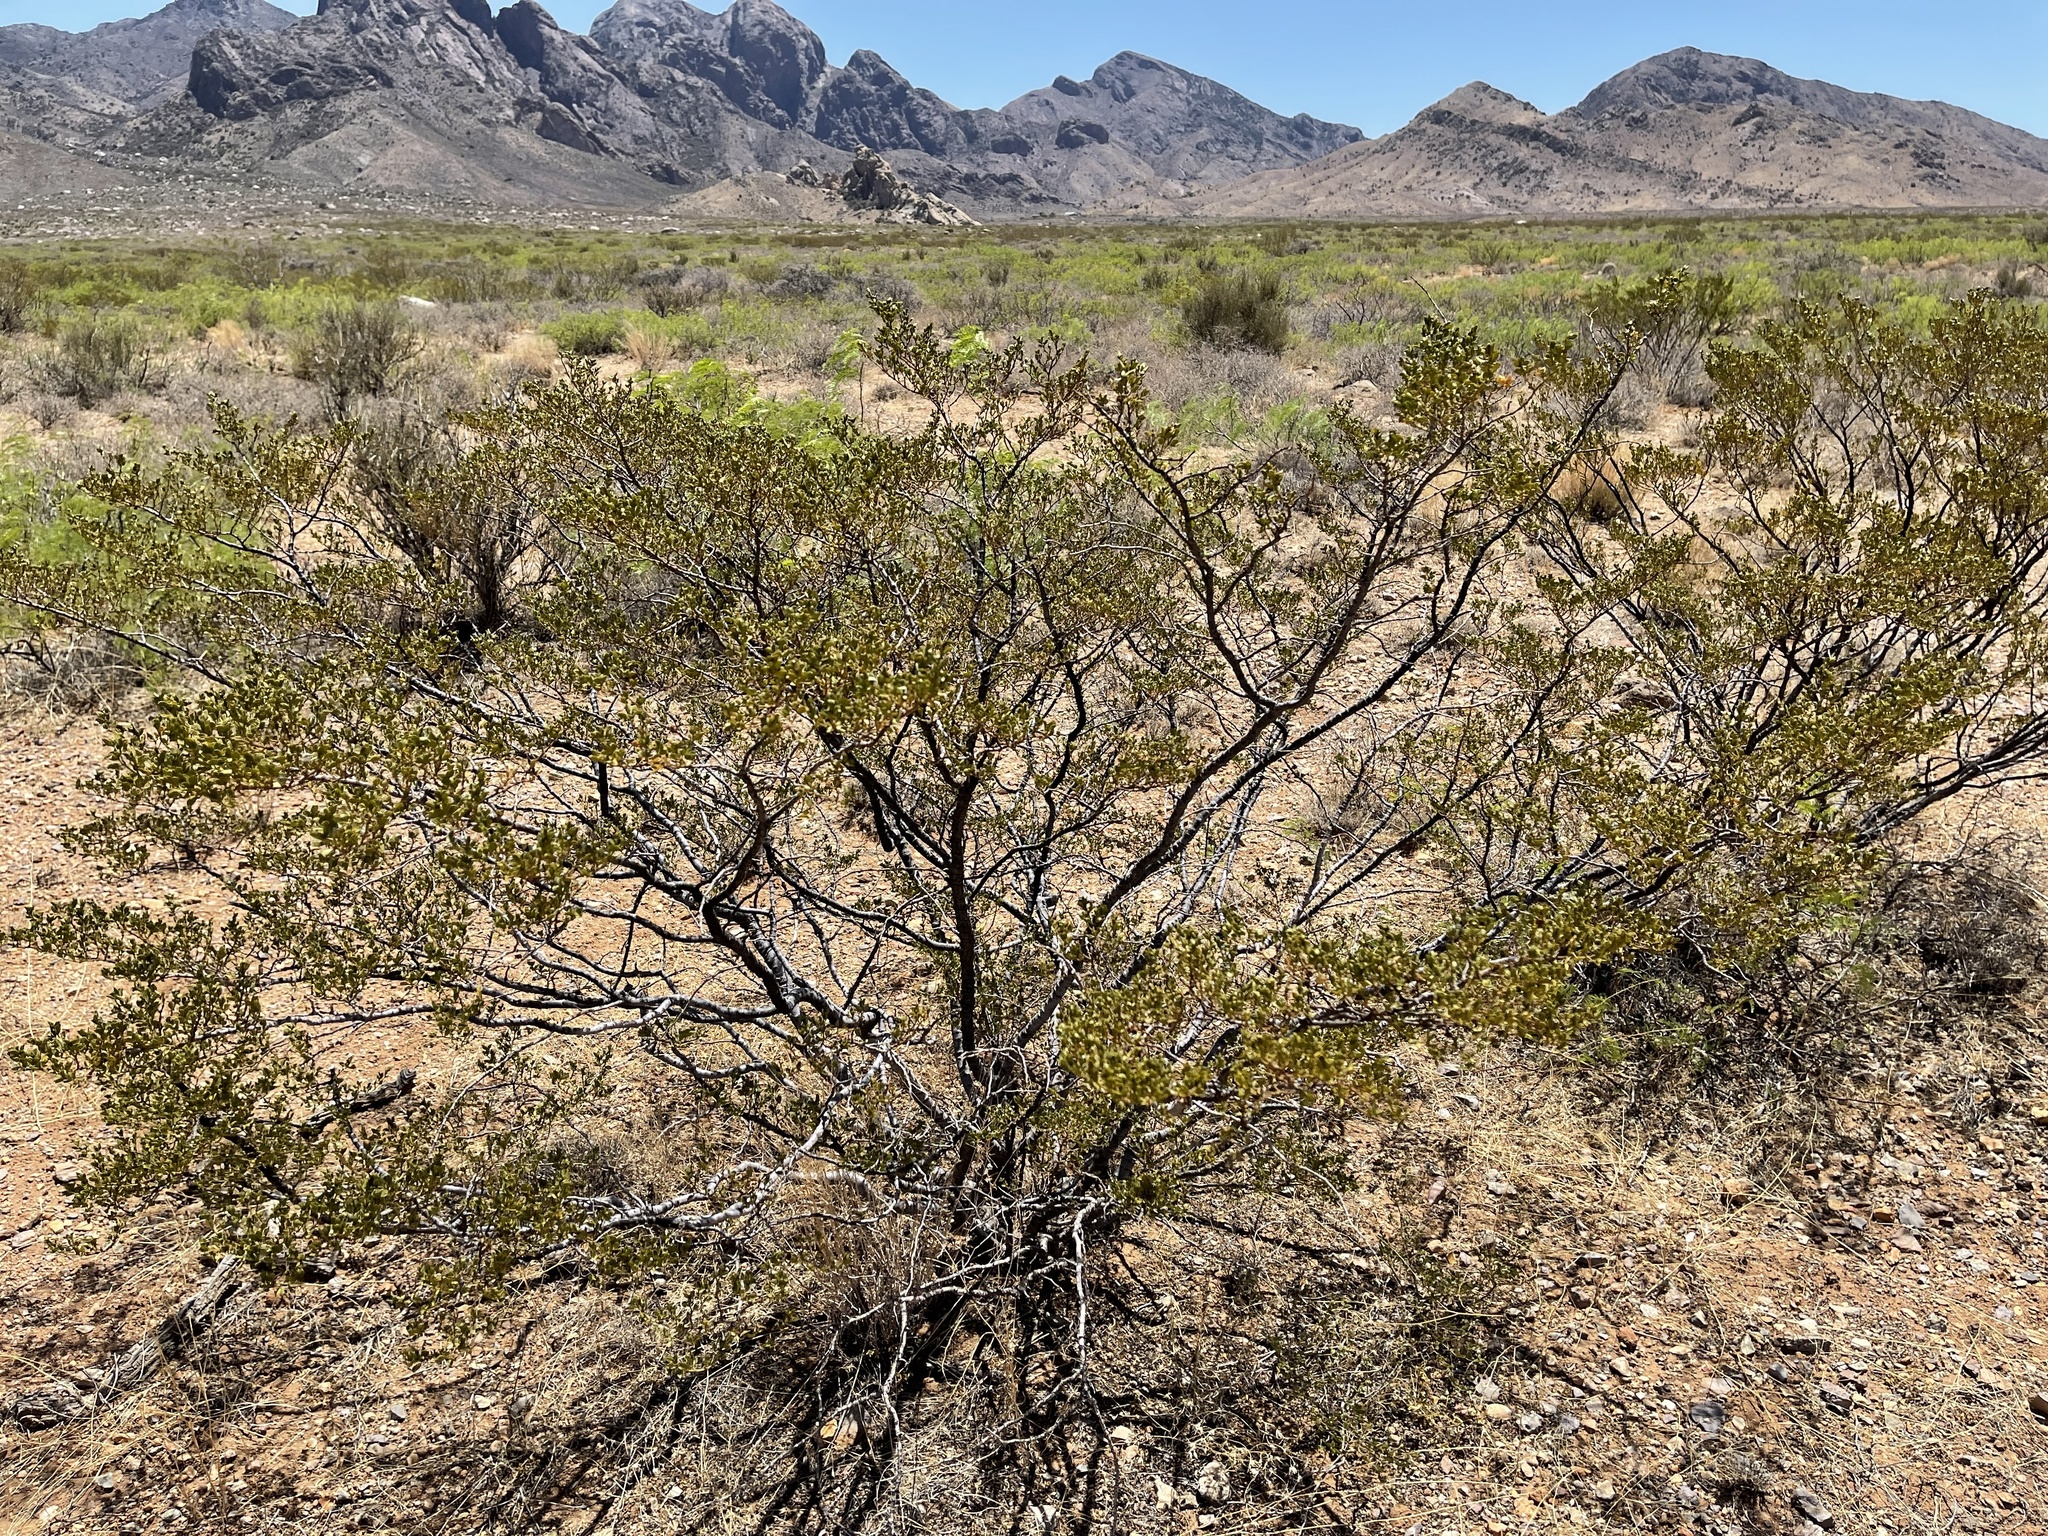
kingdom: Plantae
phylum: Tracheophyta
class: Magnoliopsida
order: Zygophyllales
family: Zygophyllaceae
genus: Larrea
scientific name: Larrea tridentata
